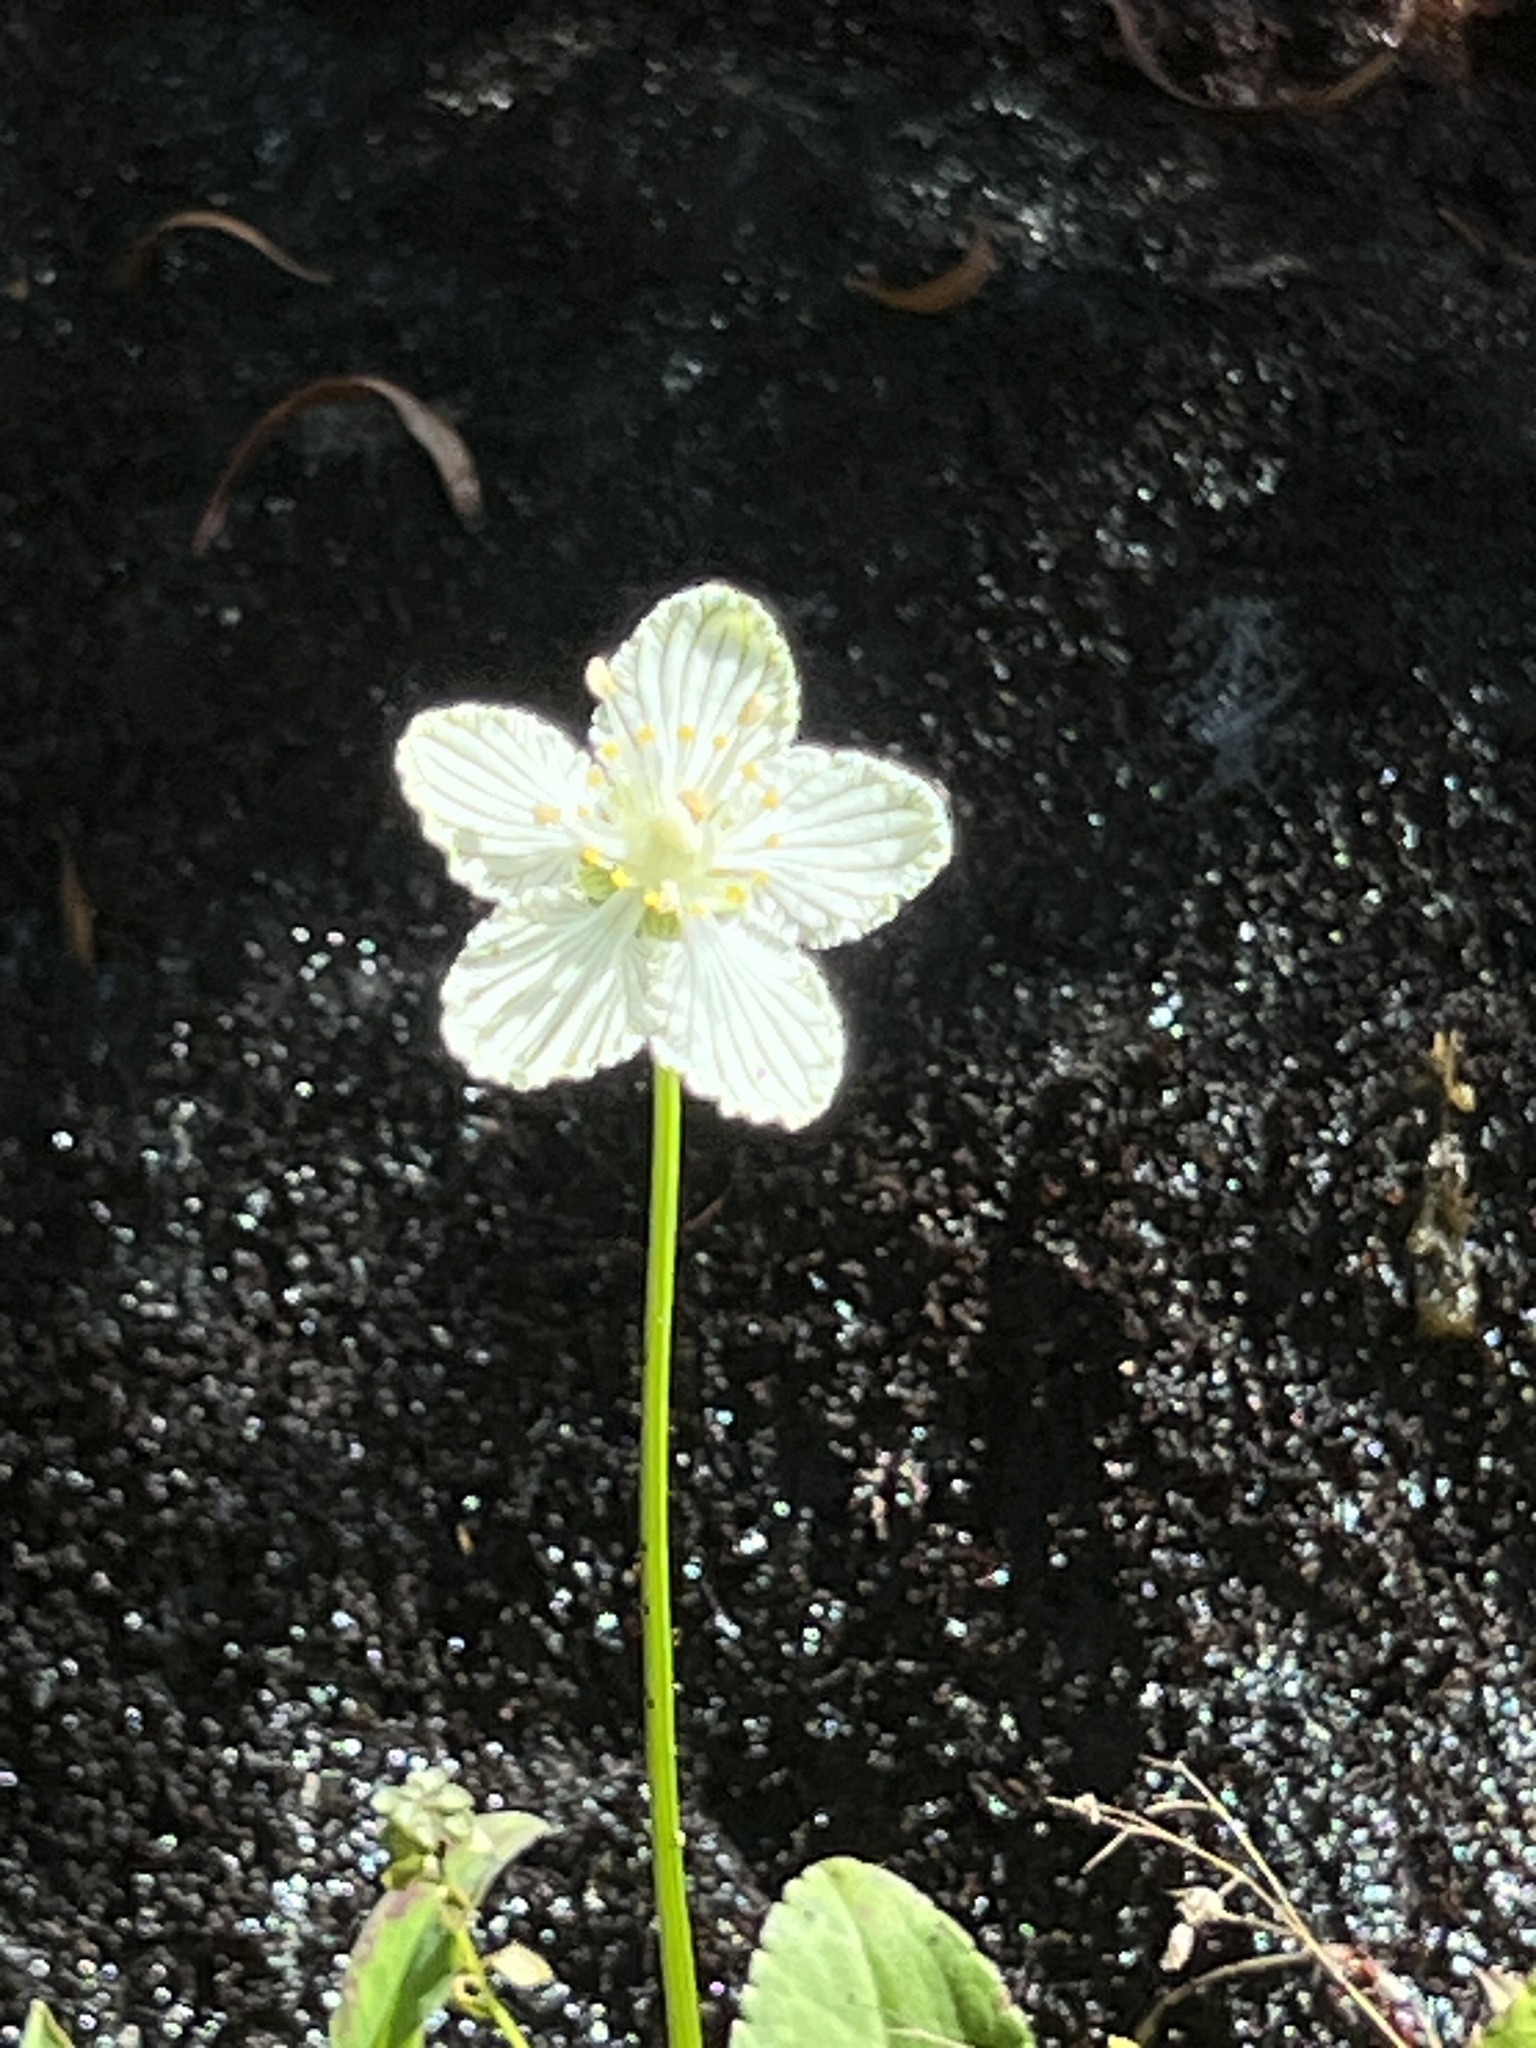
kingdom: Plantae
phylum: Tracheophyta
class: Magnoliopsida
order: Celastrales
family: Parnassiaceae
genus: Parnassia
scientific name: Parnassia asarifolia
